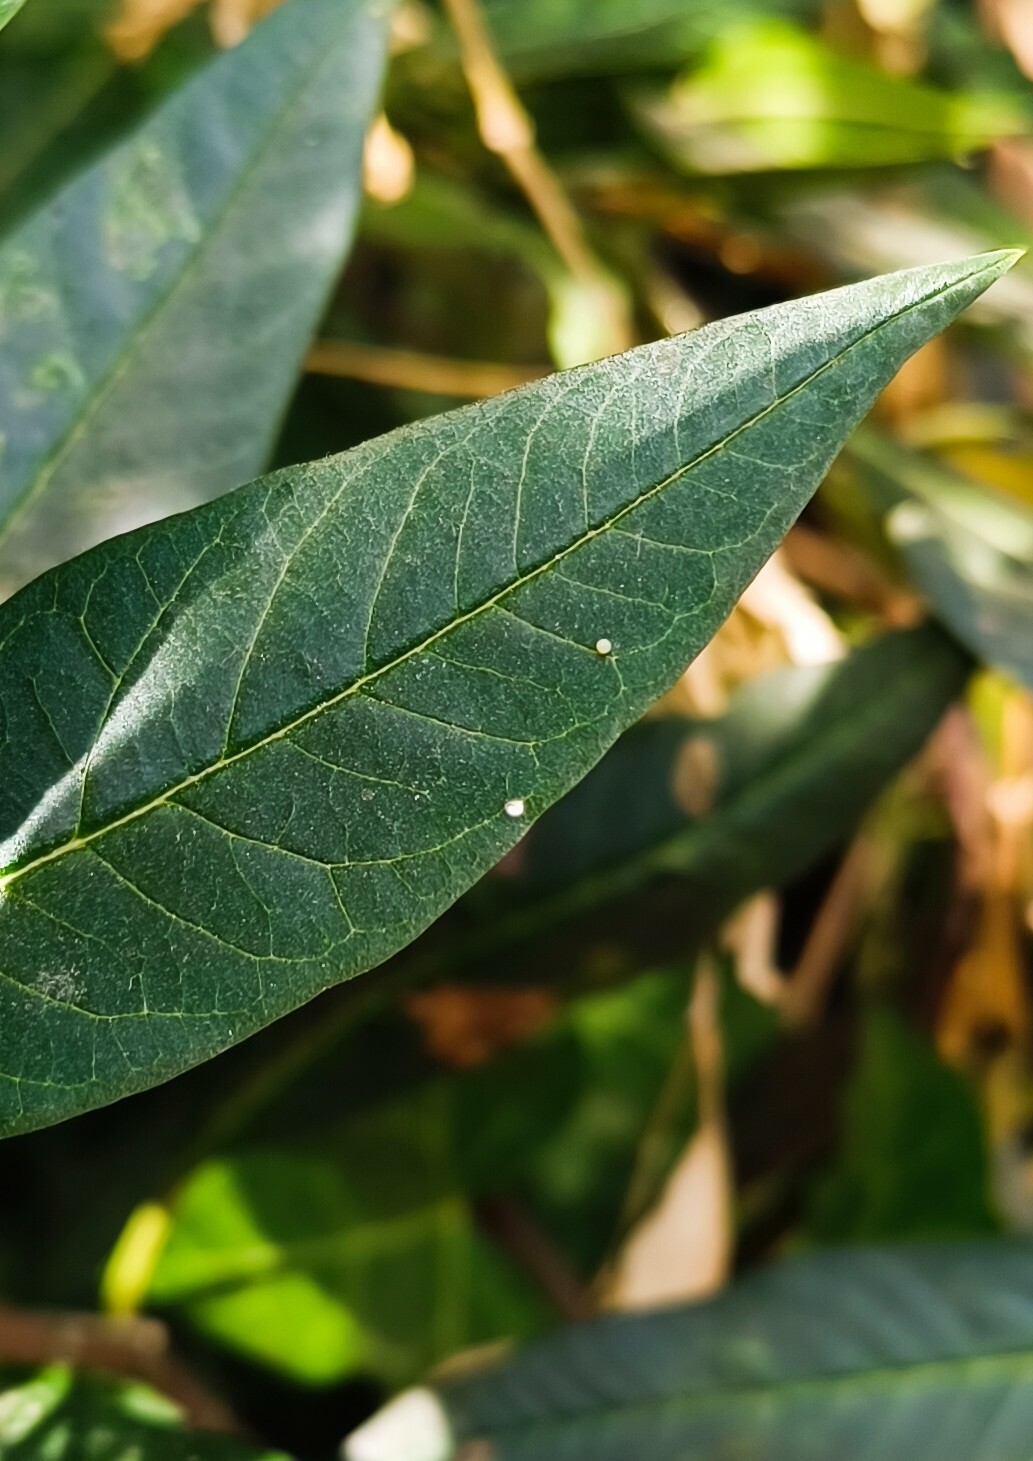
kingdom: Animalia
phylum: Arthropoda
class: Insecta
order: Lepidoptera
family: Nymphalidae
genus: Danaus
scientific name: Danaus plexippus
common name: Monarch
